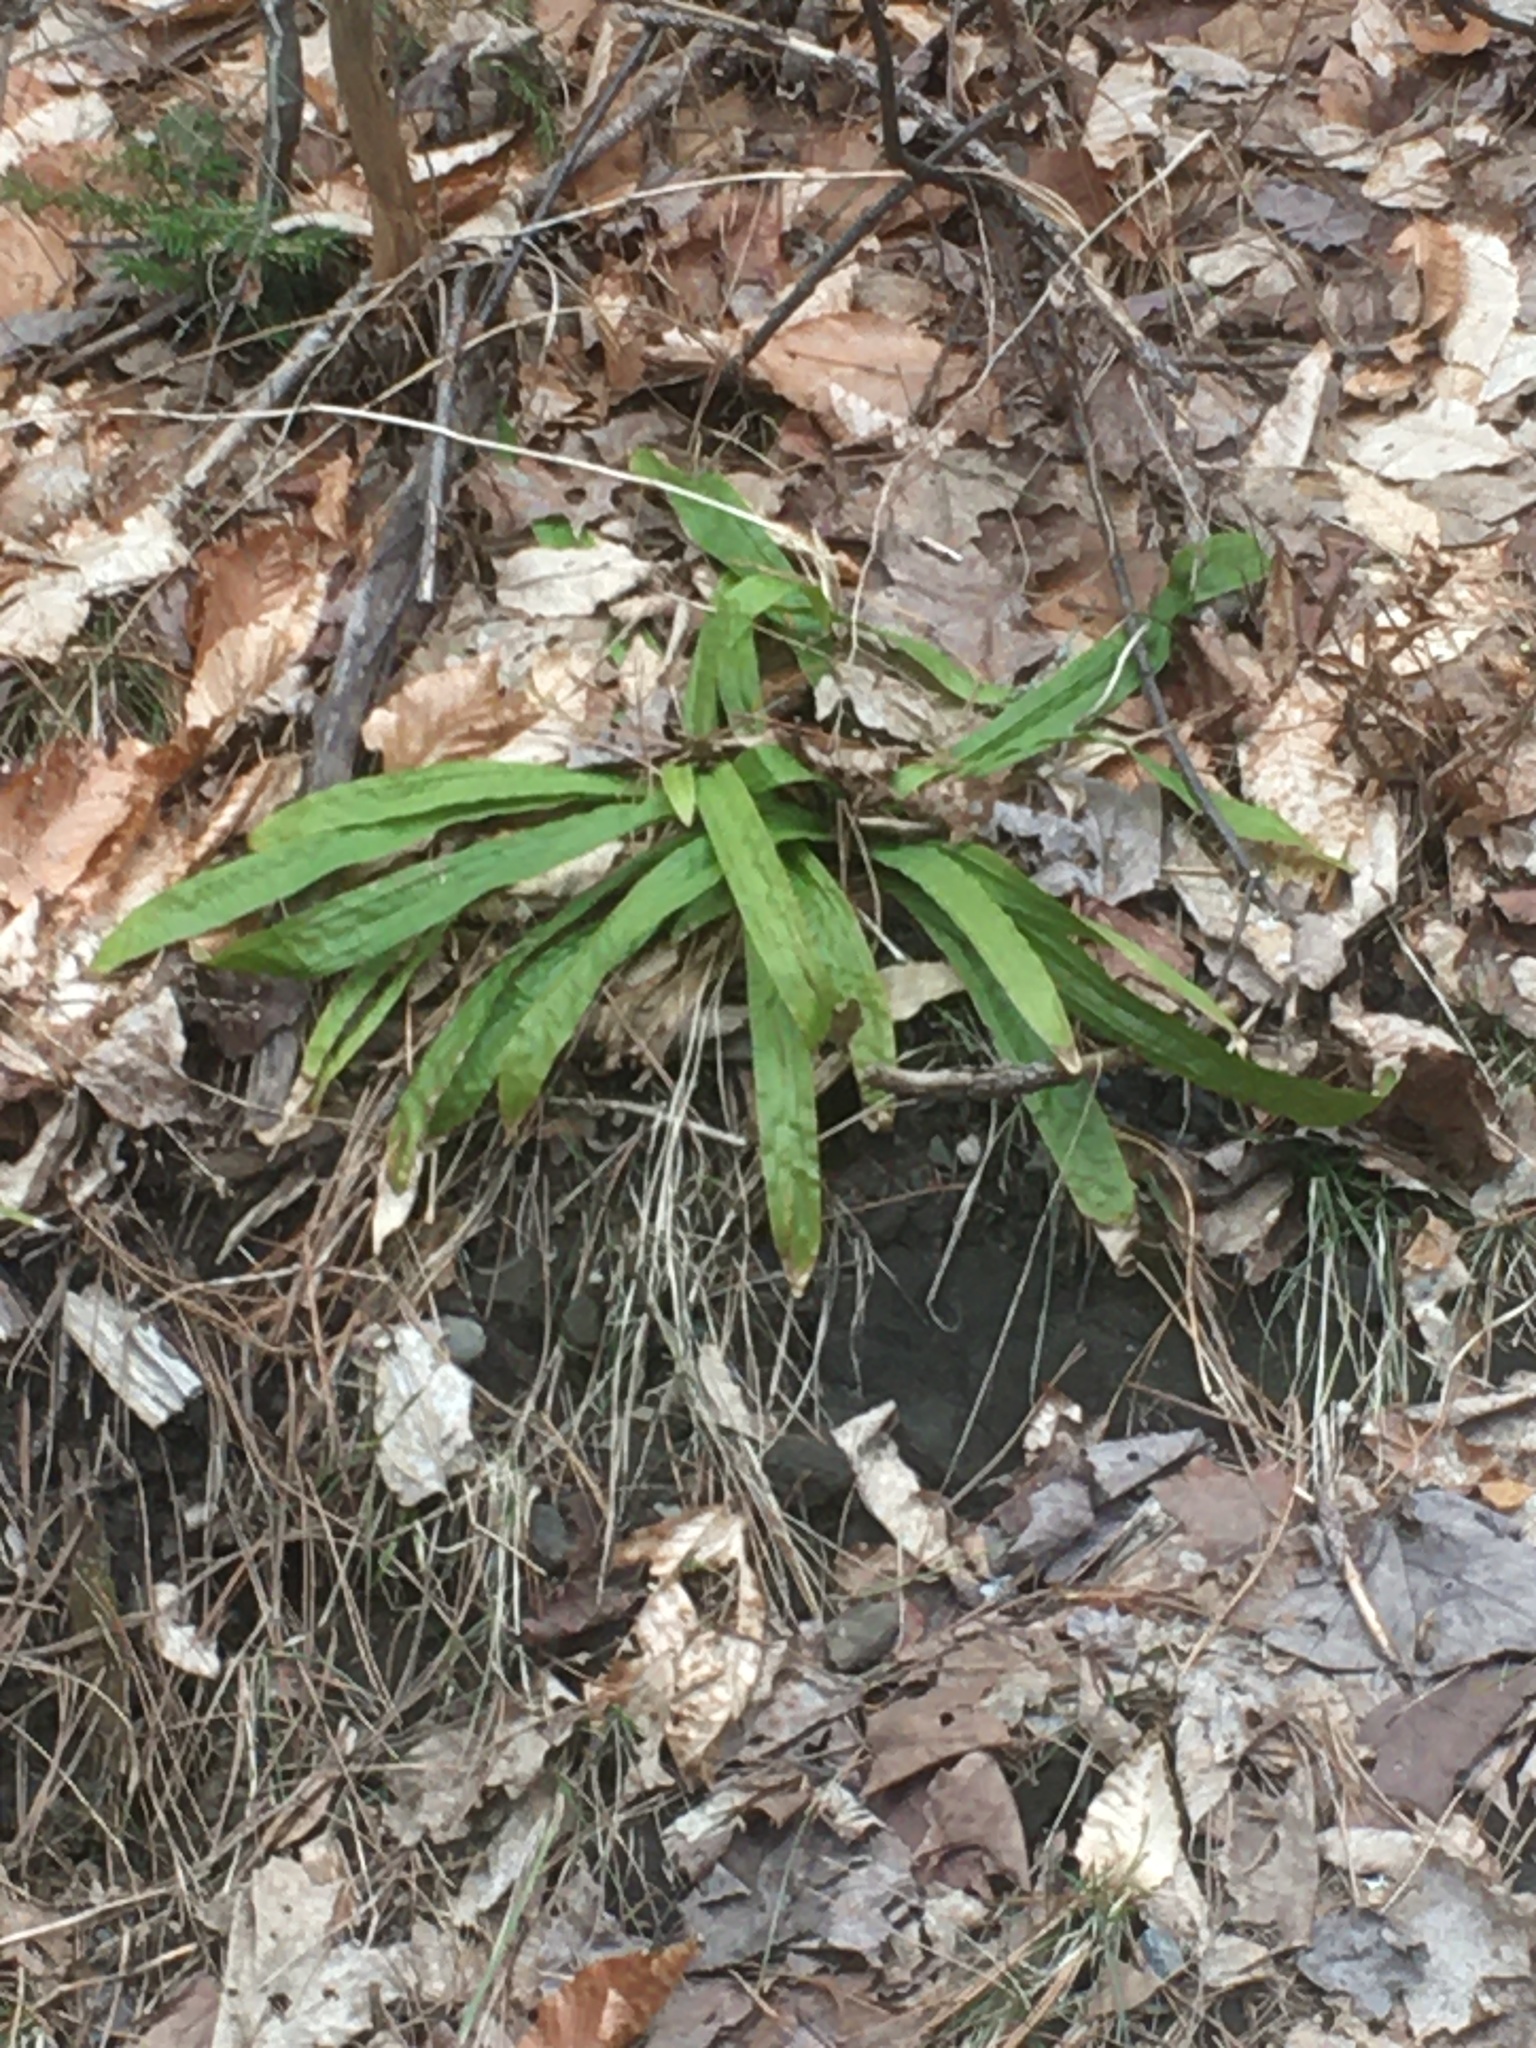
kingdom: Plantae
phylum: Tracheophyta
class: Liliopsida
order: Poales
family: Cyperaceae
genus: Carex
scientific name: Carex plantaginea
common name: Plantain-leaved sedge
